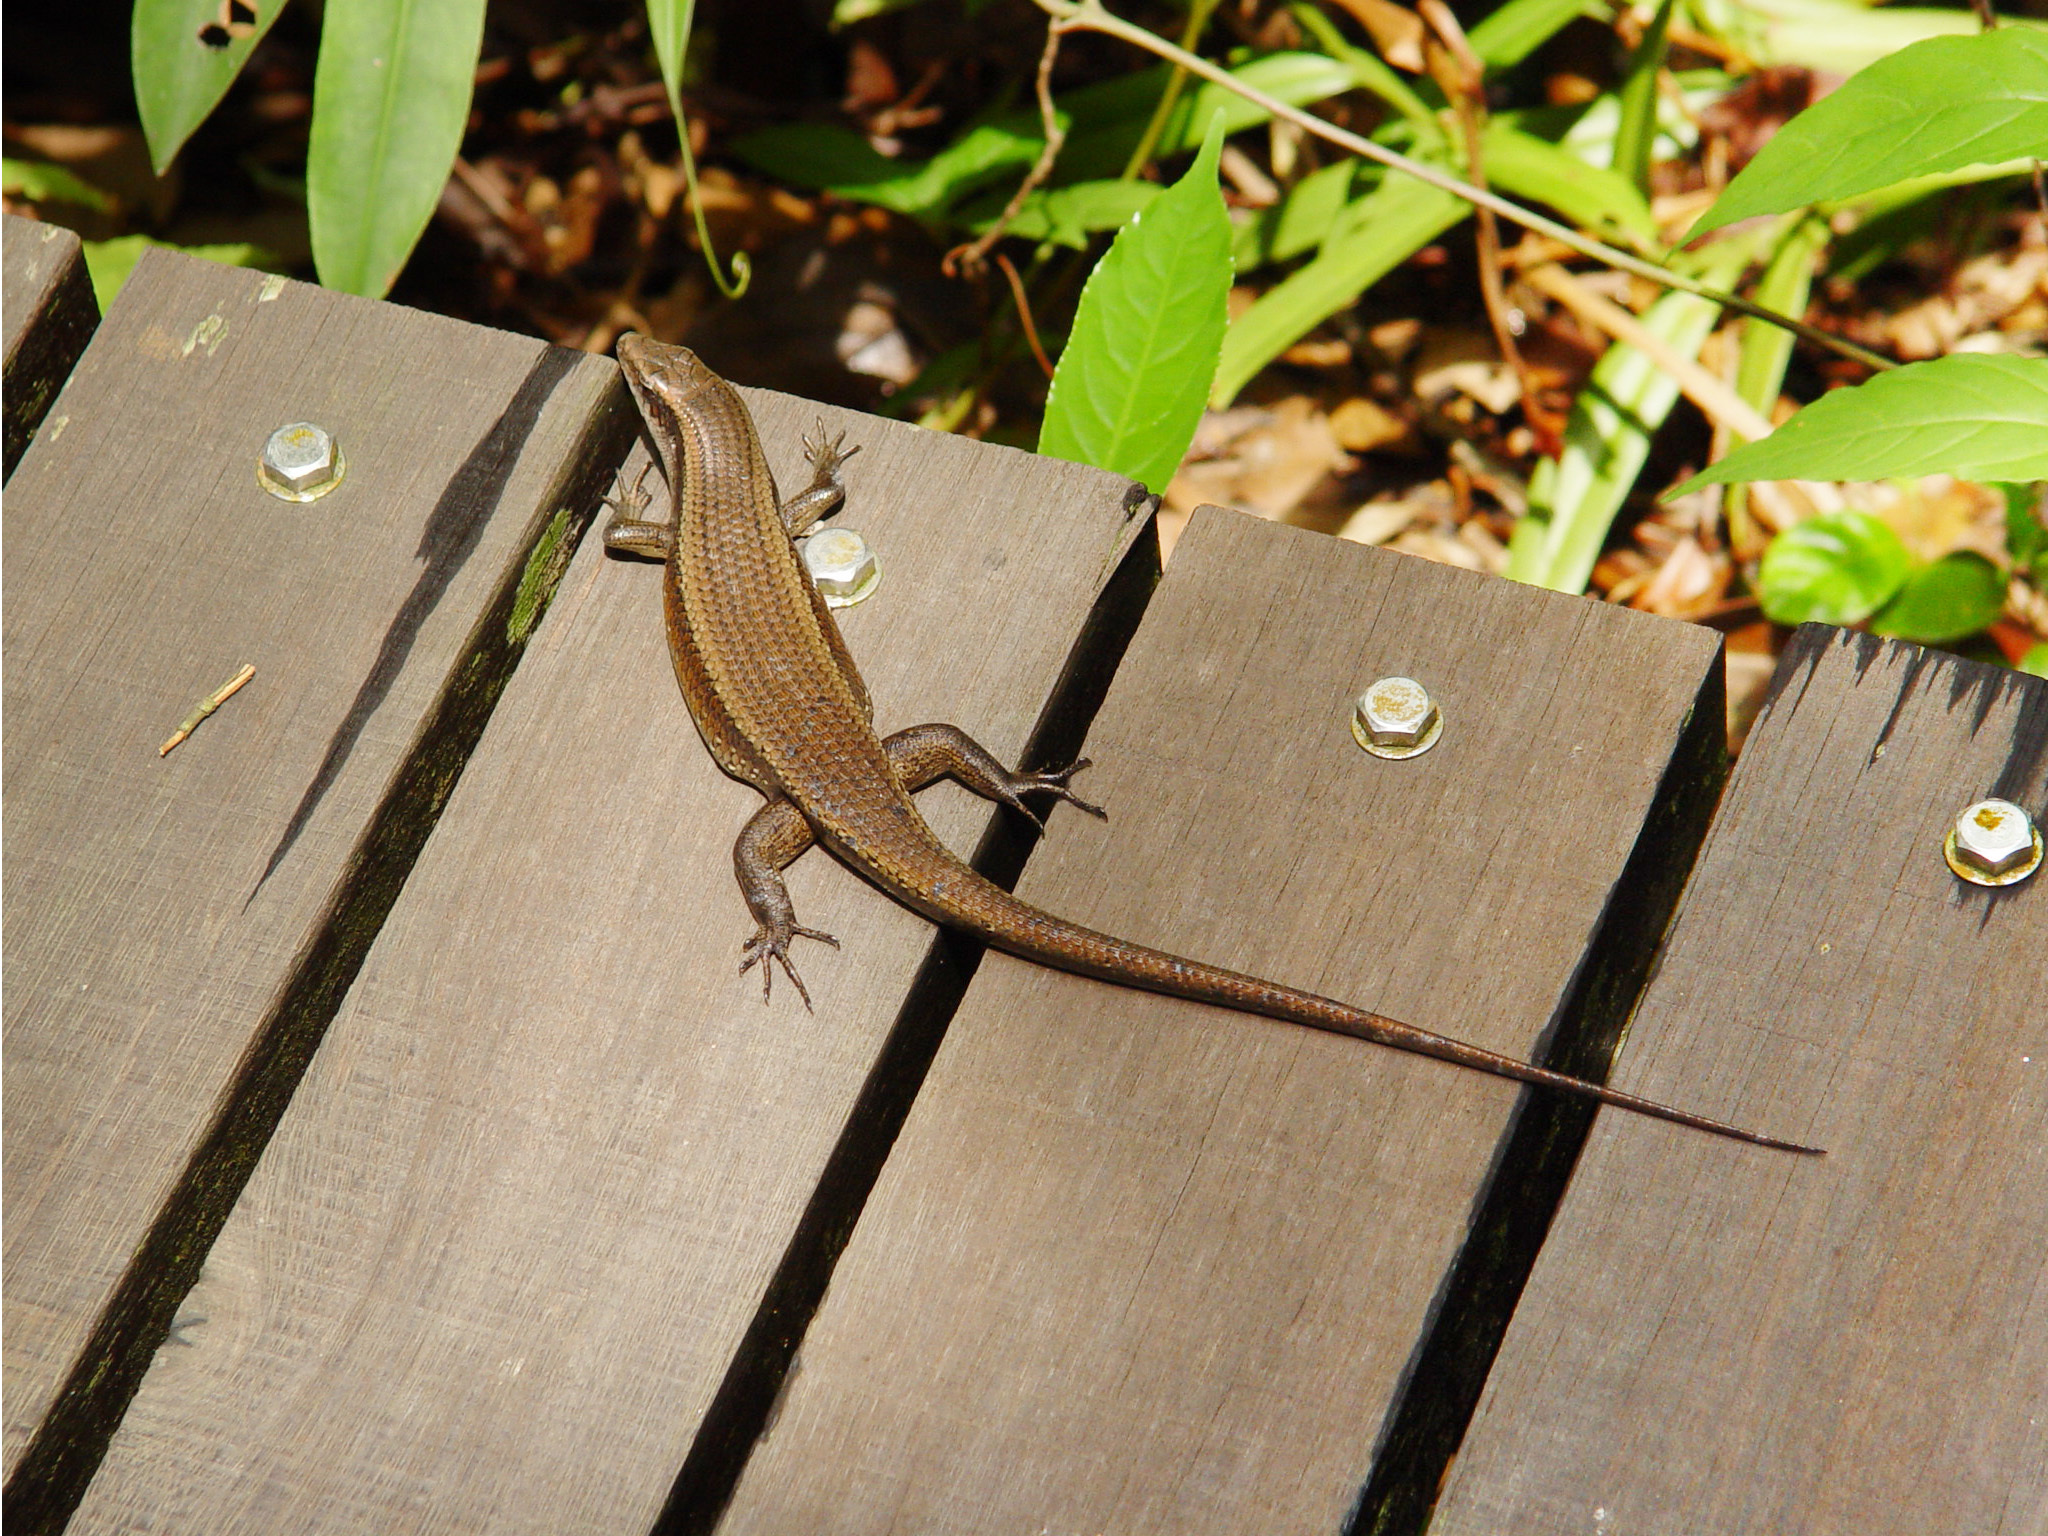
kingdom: Animalia
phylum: Chordata
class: Squamata
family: Scincidae
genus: Eutropis
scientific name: Eutropis multifasciata
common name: Common mabuya
